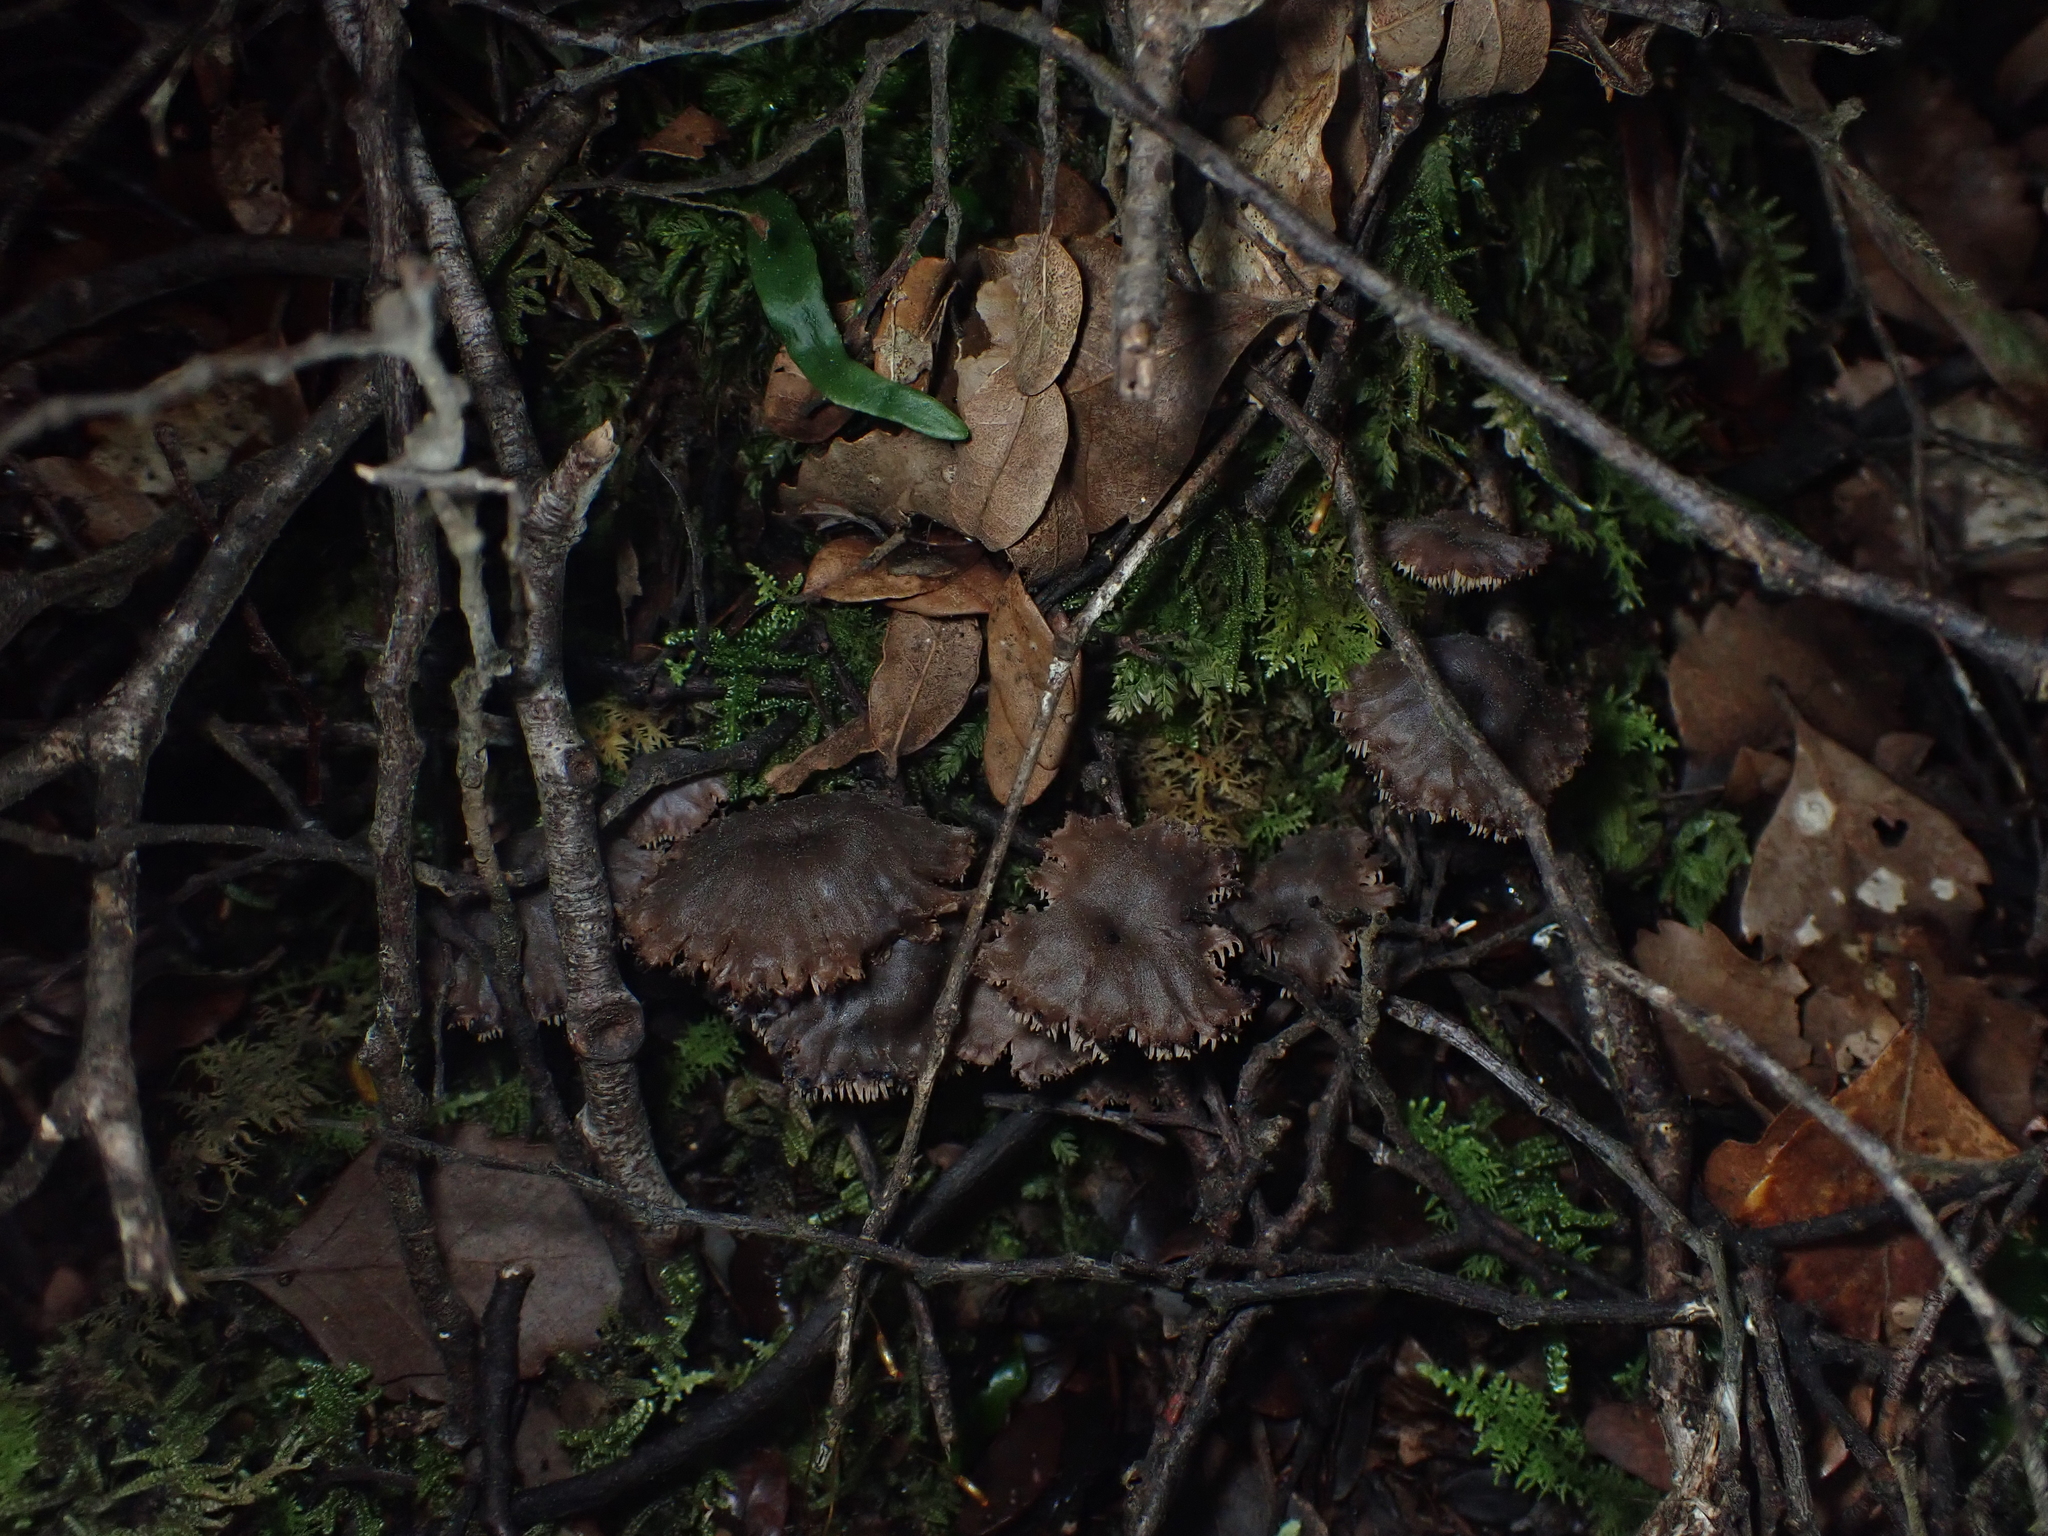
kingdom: Fungi
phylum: Basidiomycota
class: Agaricomycetes
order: Russulales
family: Auriscalpiaceae
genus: Auriscalpium
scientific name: Auriscalpium umbella
